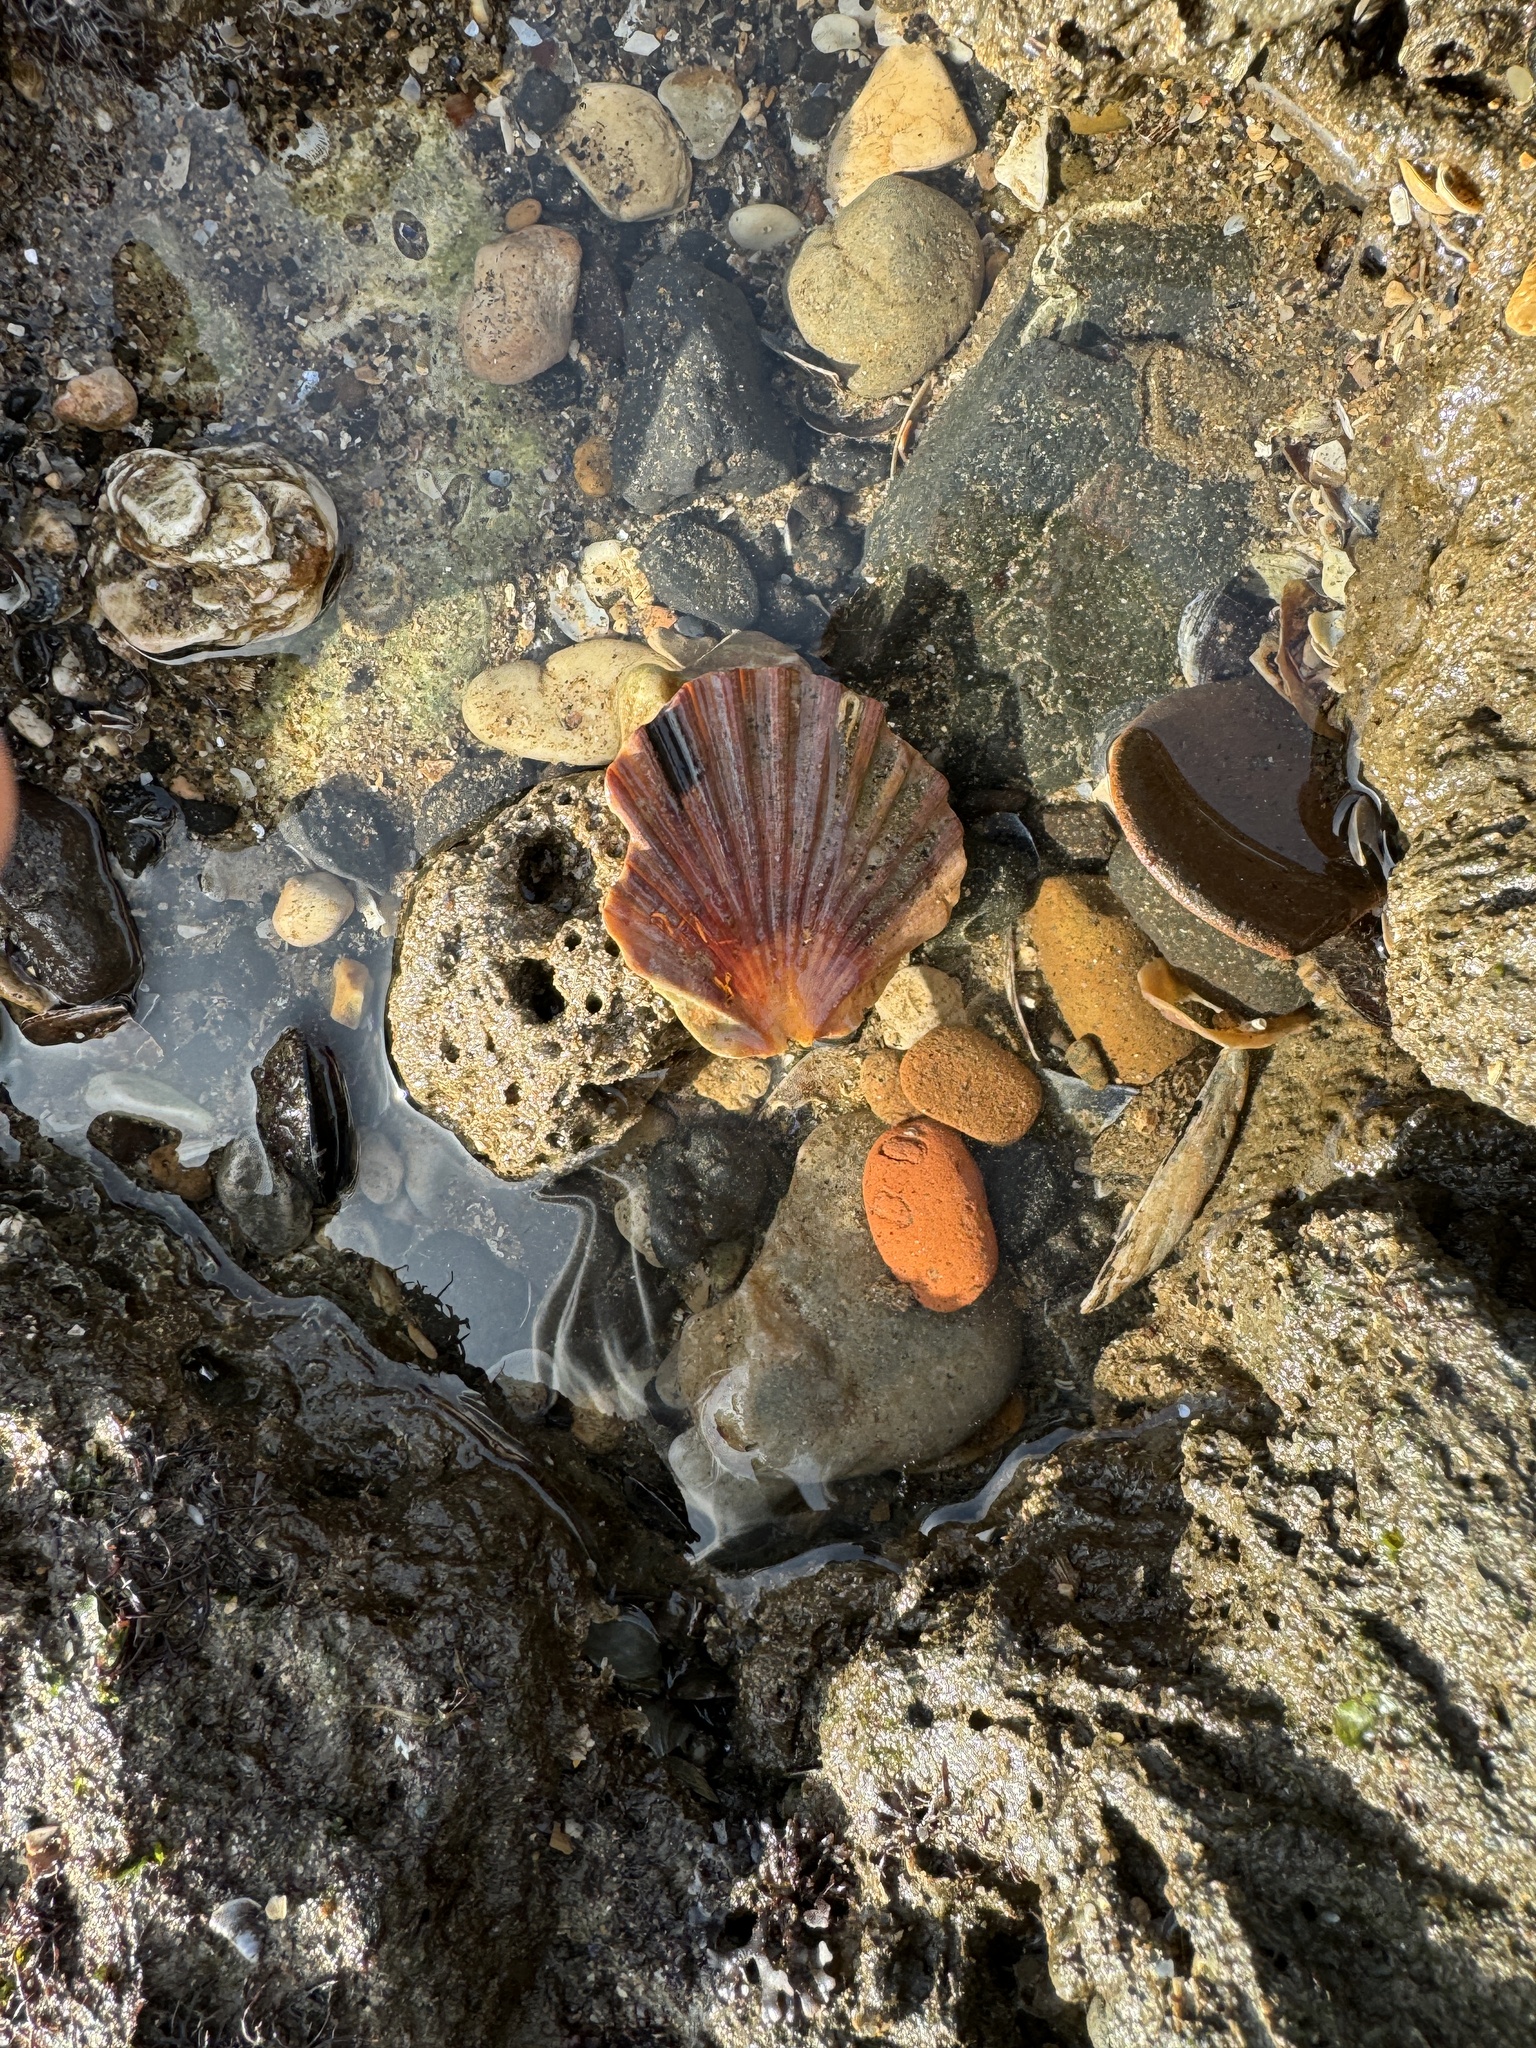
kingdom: Animalia
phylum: Mollusca
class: Bivalvia
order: Pectinida
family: Pectinidae
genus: Pecten
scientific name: Pecten maximus
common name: Great scallop
